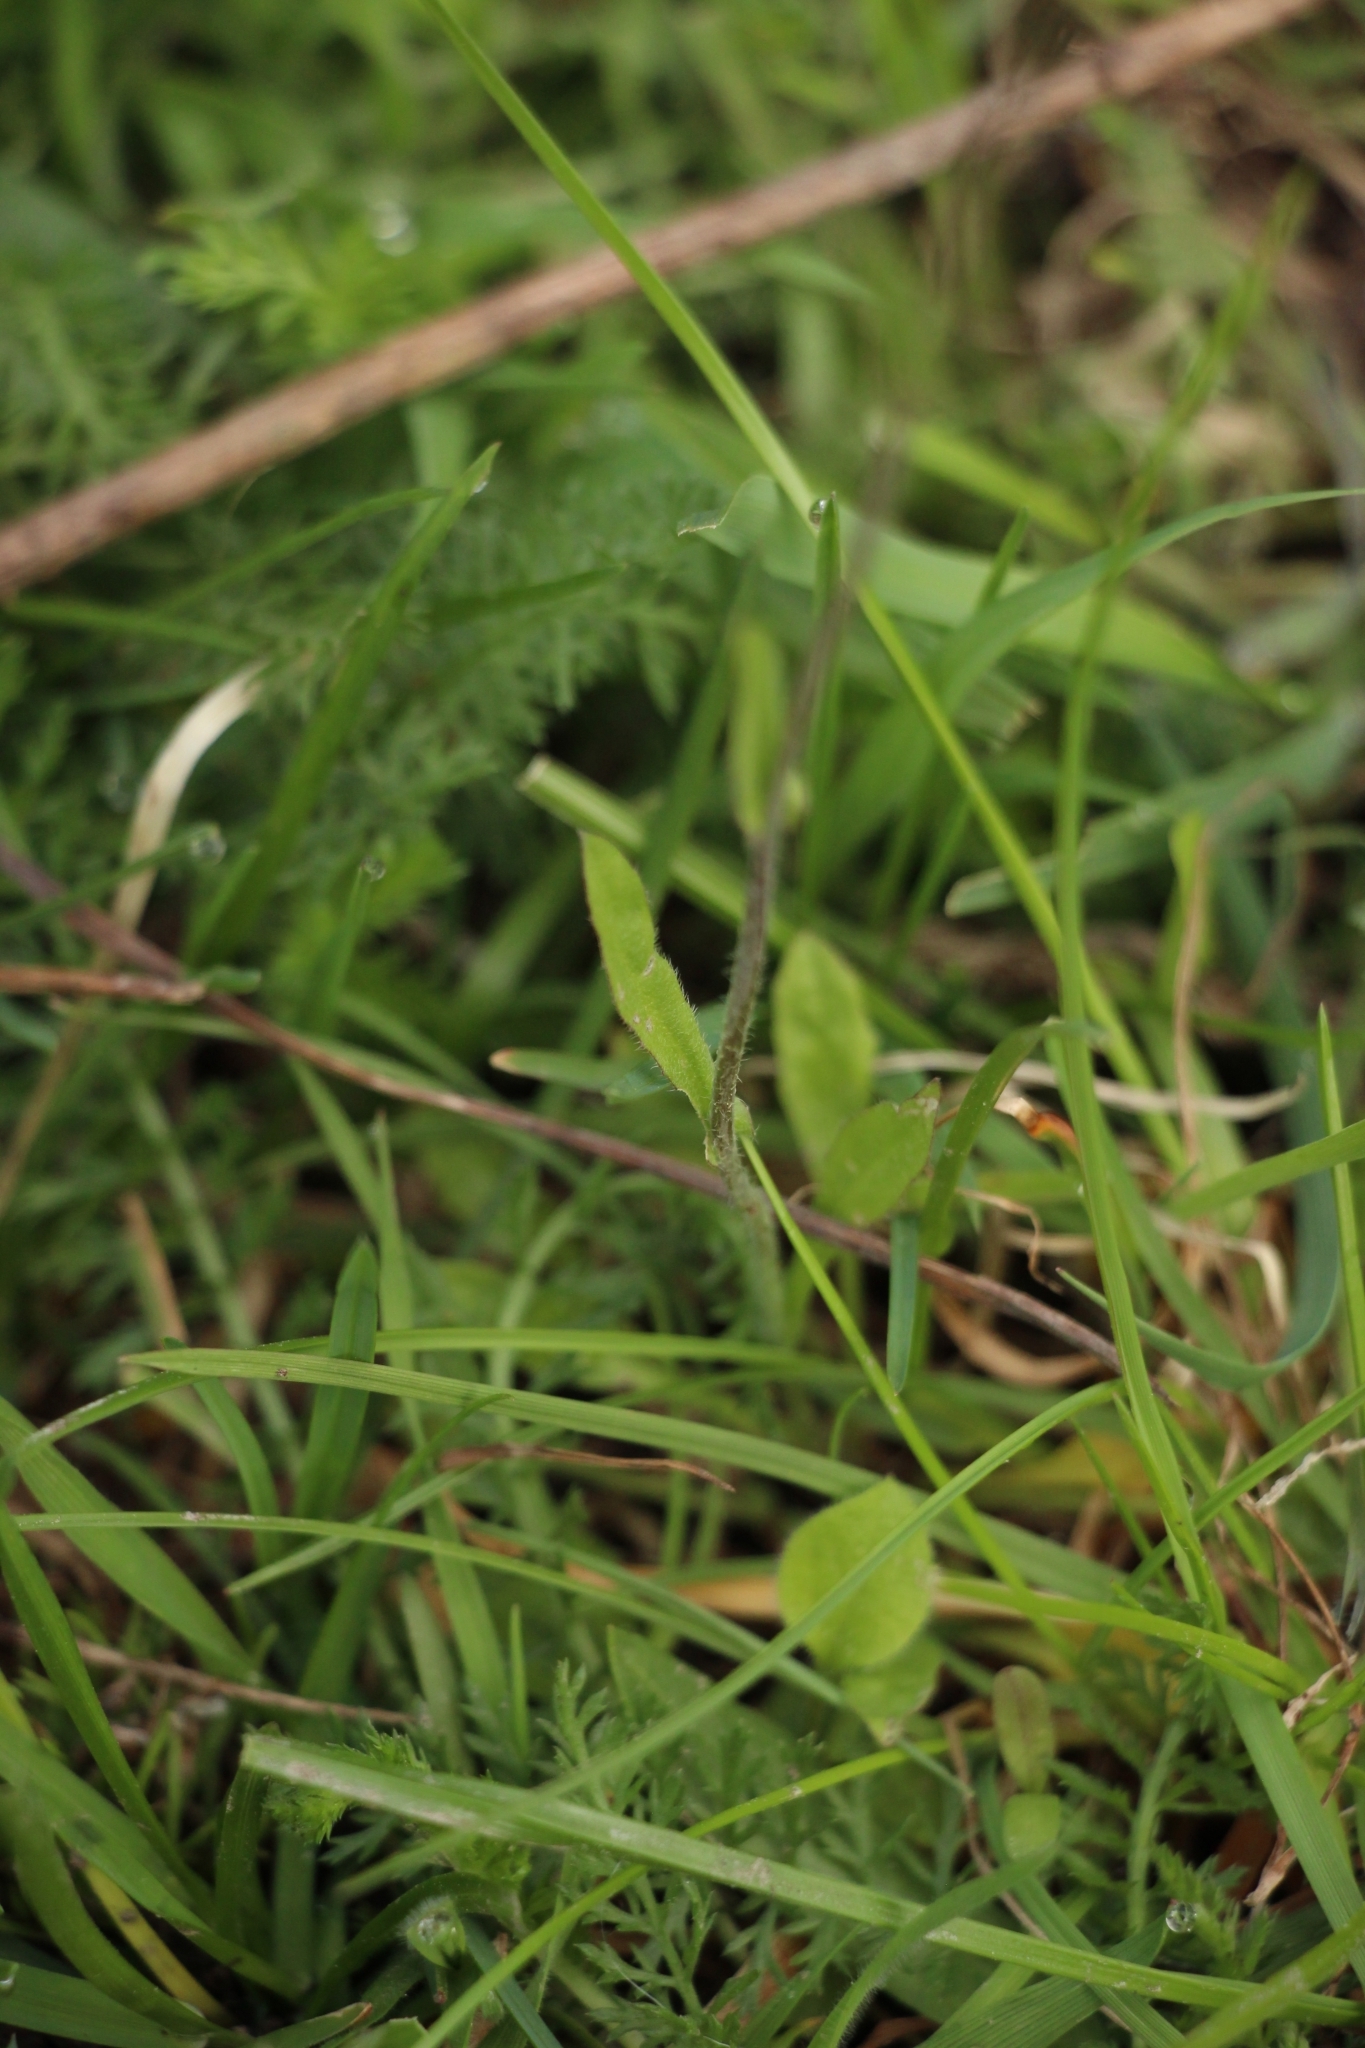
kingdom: Plantae
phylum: Tracheophyta
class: Magnoliopsida
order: Brassicales
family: Brassicaceae
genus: Capsella
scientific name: Capsella bursa-pastoris
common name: Shepherd's purse
